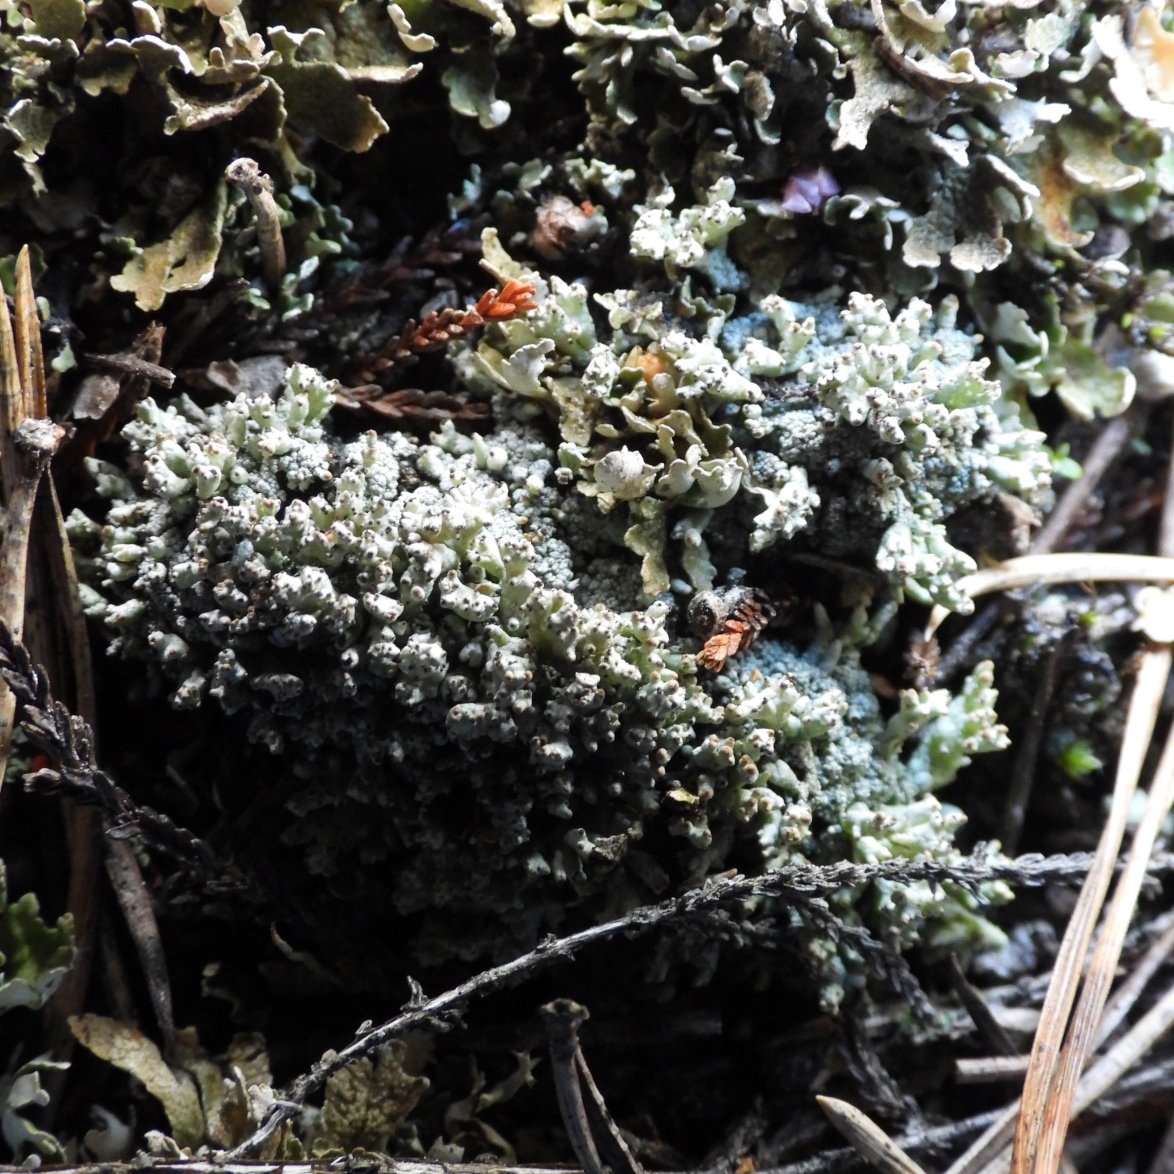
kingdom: Fungi
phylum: Ascomycota
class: Lecanoromycetes
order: Lecanorales
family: Cladoniaceae
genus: Pycnothelia
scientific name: Pycnothelia papillaria
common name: Nipple lichen
